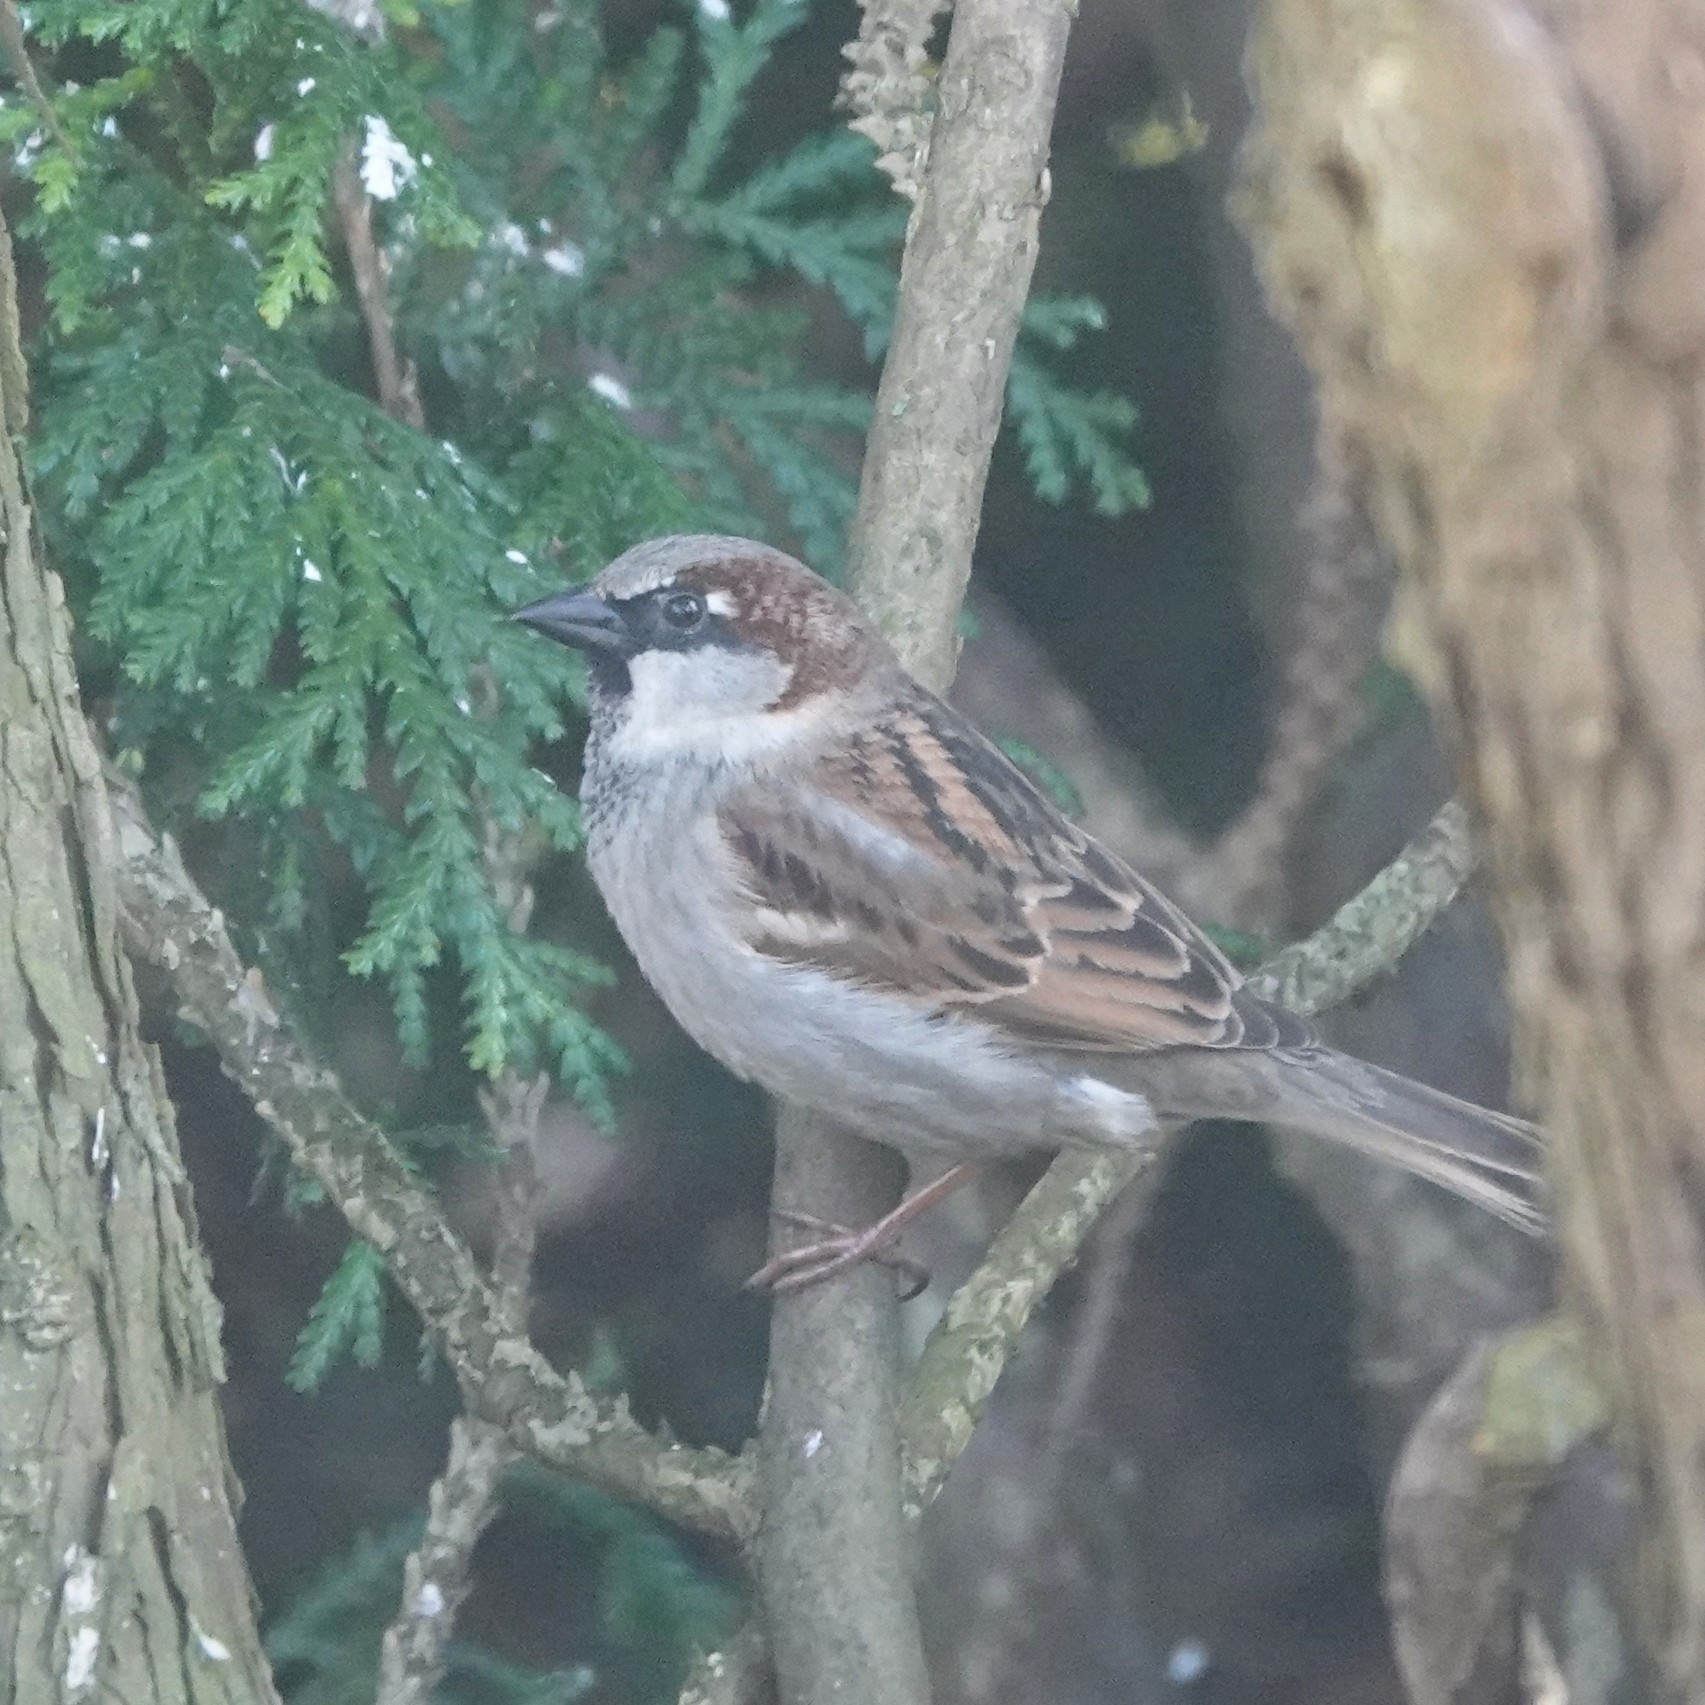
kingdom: Animalia
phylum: Chordata
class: Aves
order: Passeriformes
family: Passeridae
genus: Passer
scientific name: Passer domesticus
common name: House sparrow
